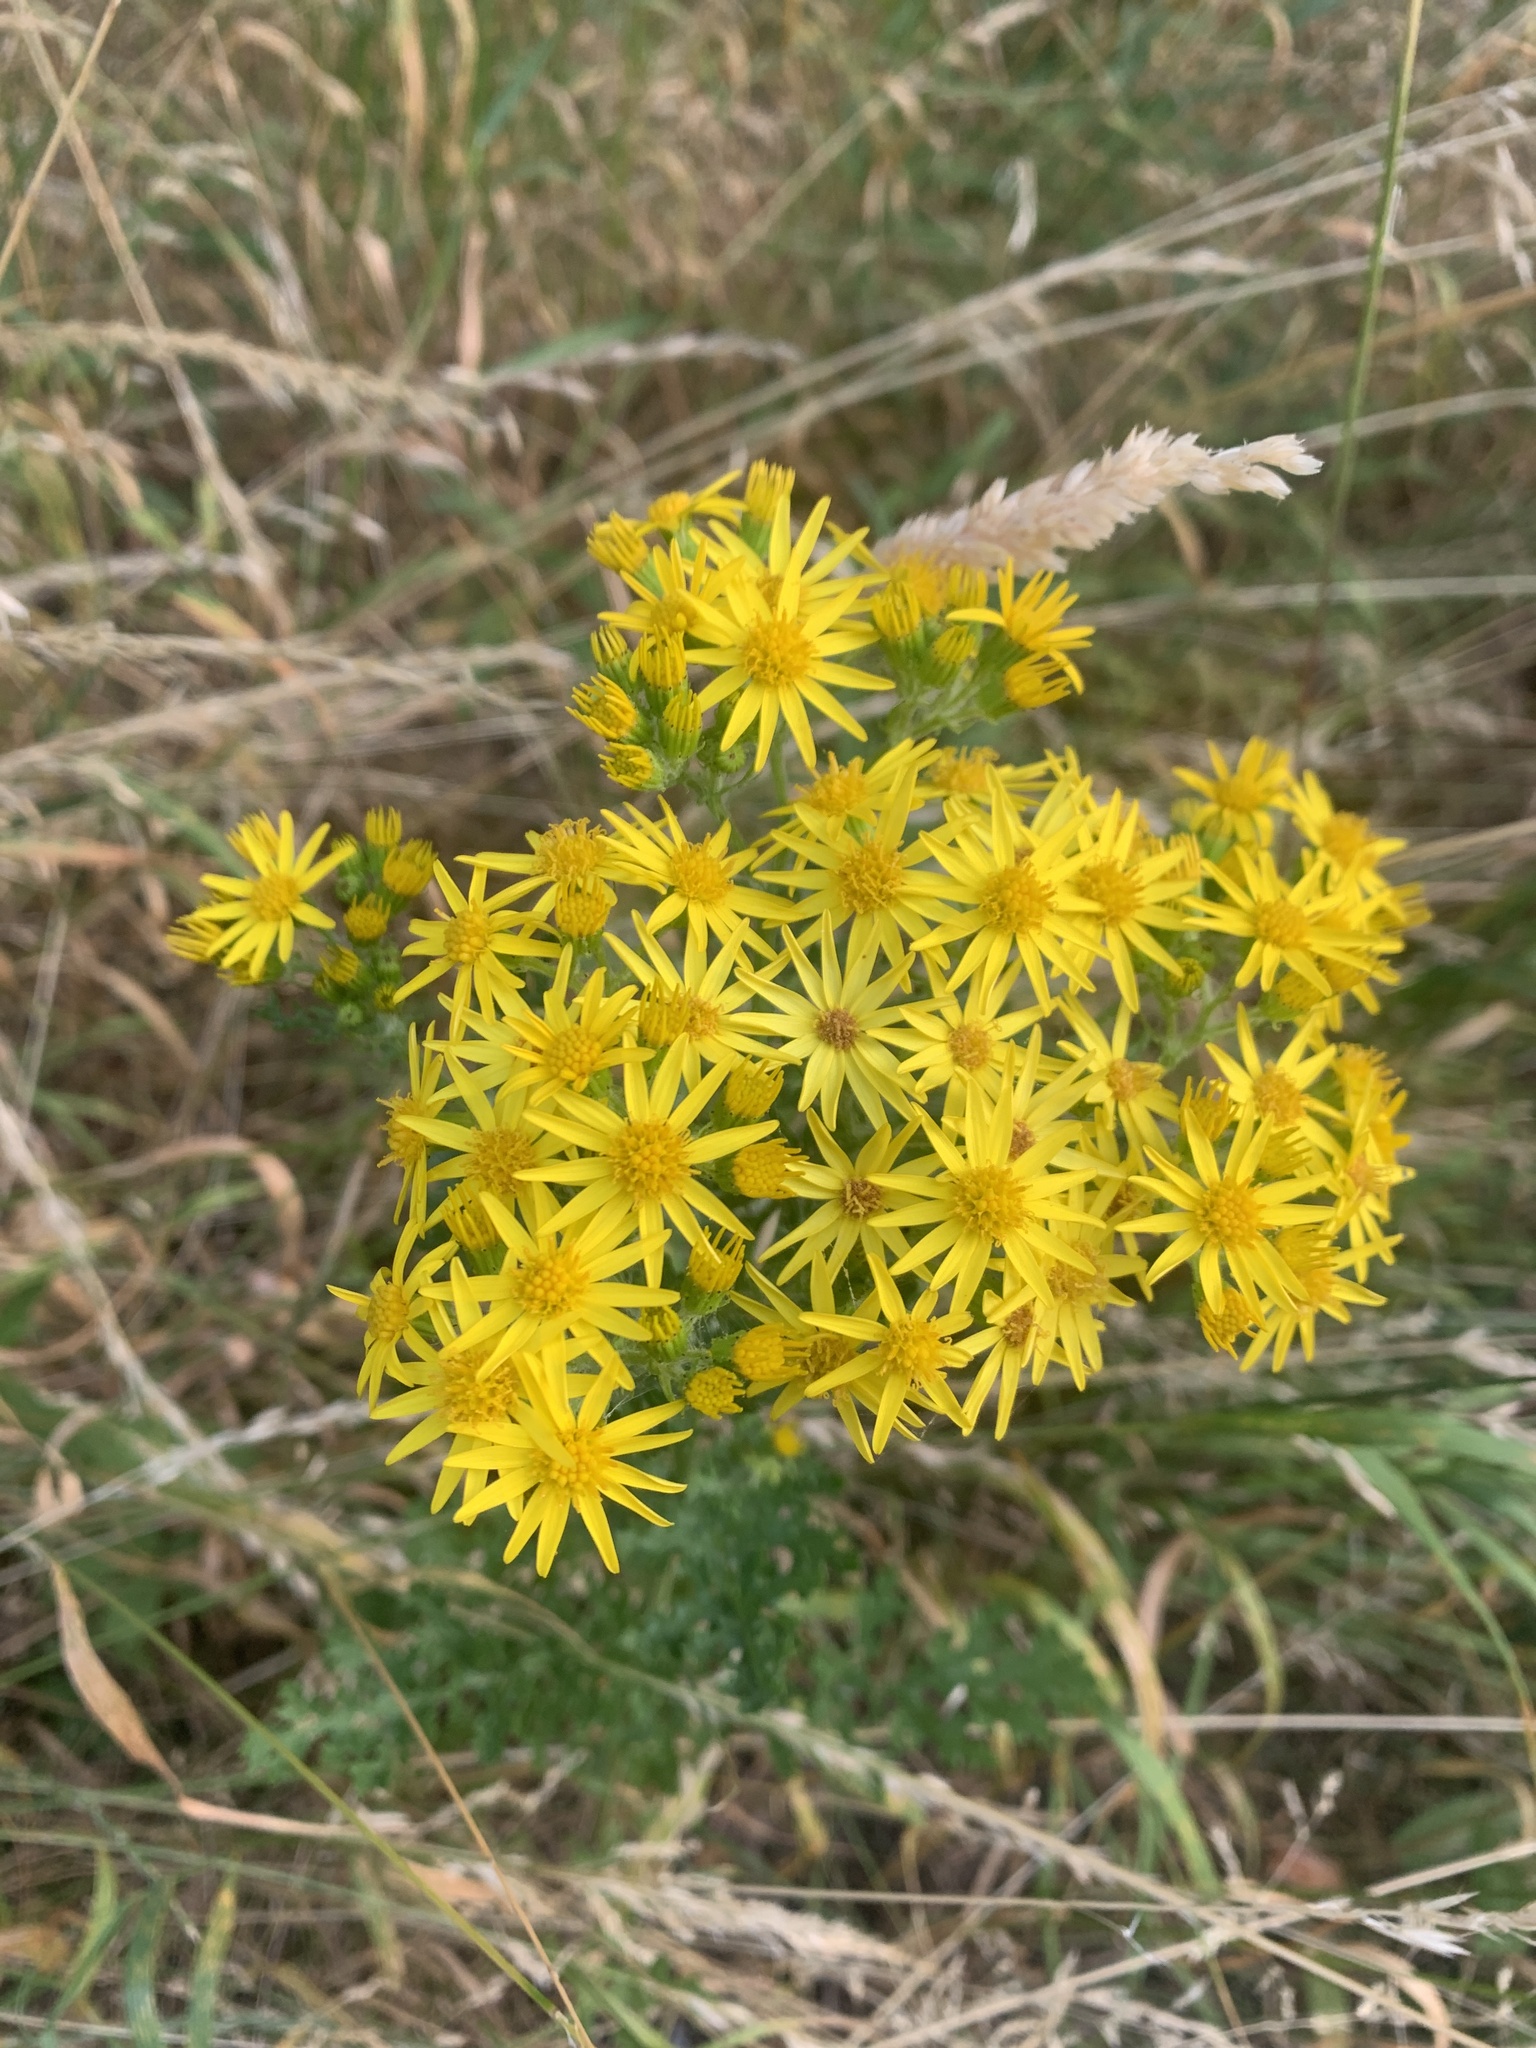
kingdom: Plantae
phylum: Tracheophyta
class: Magnoliopsida
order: Asterales
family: Asteraceae
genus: Jacobaea
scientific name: Jacobaea vulgaris
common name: Stinking willie
